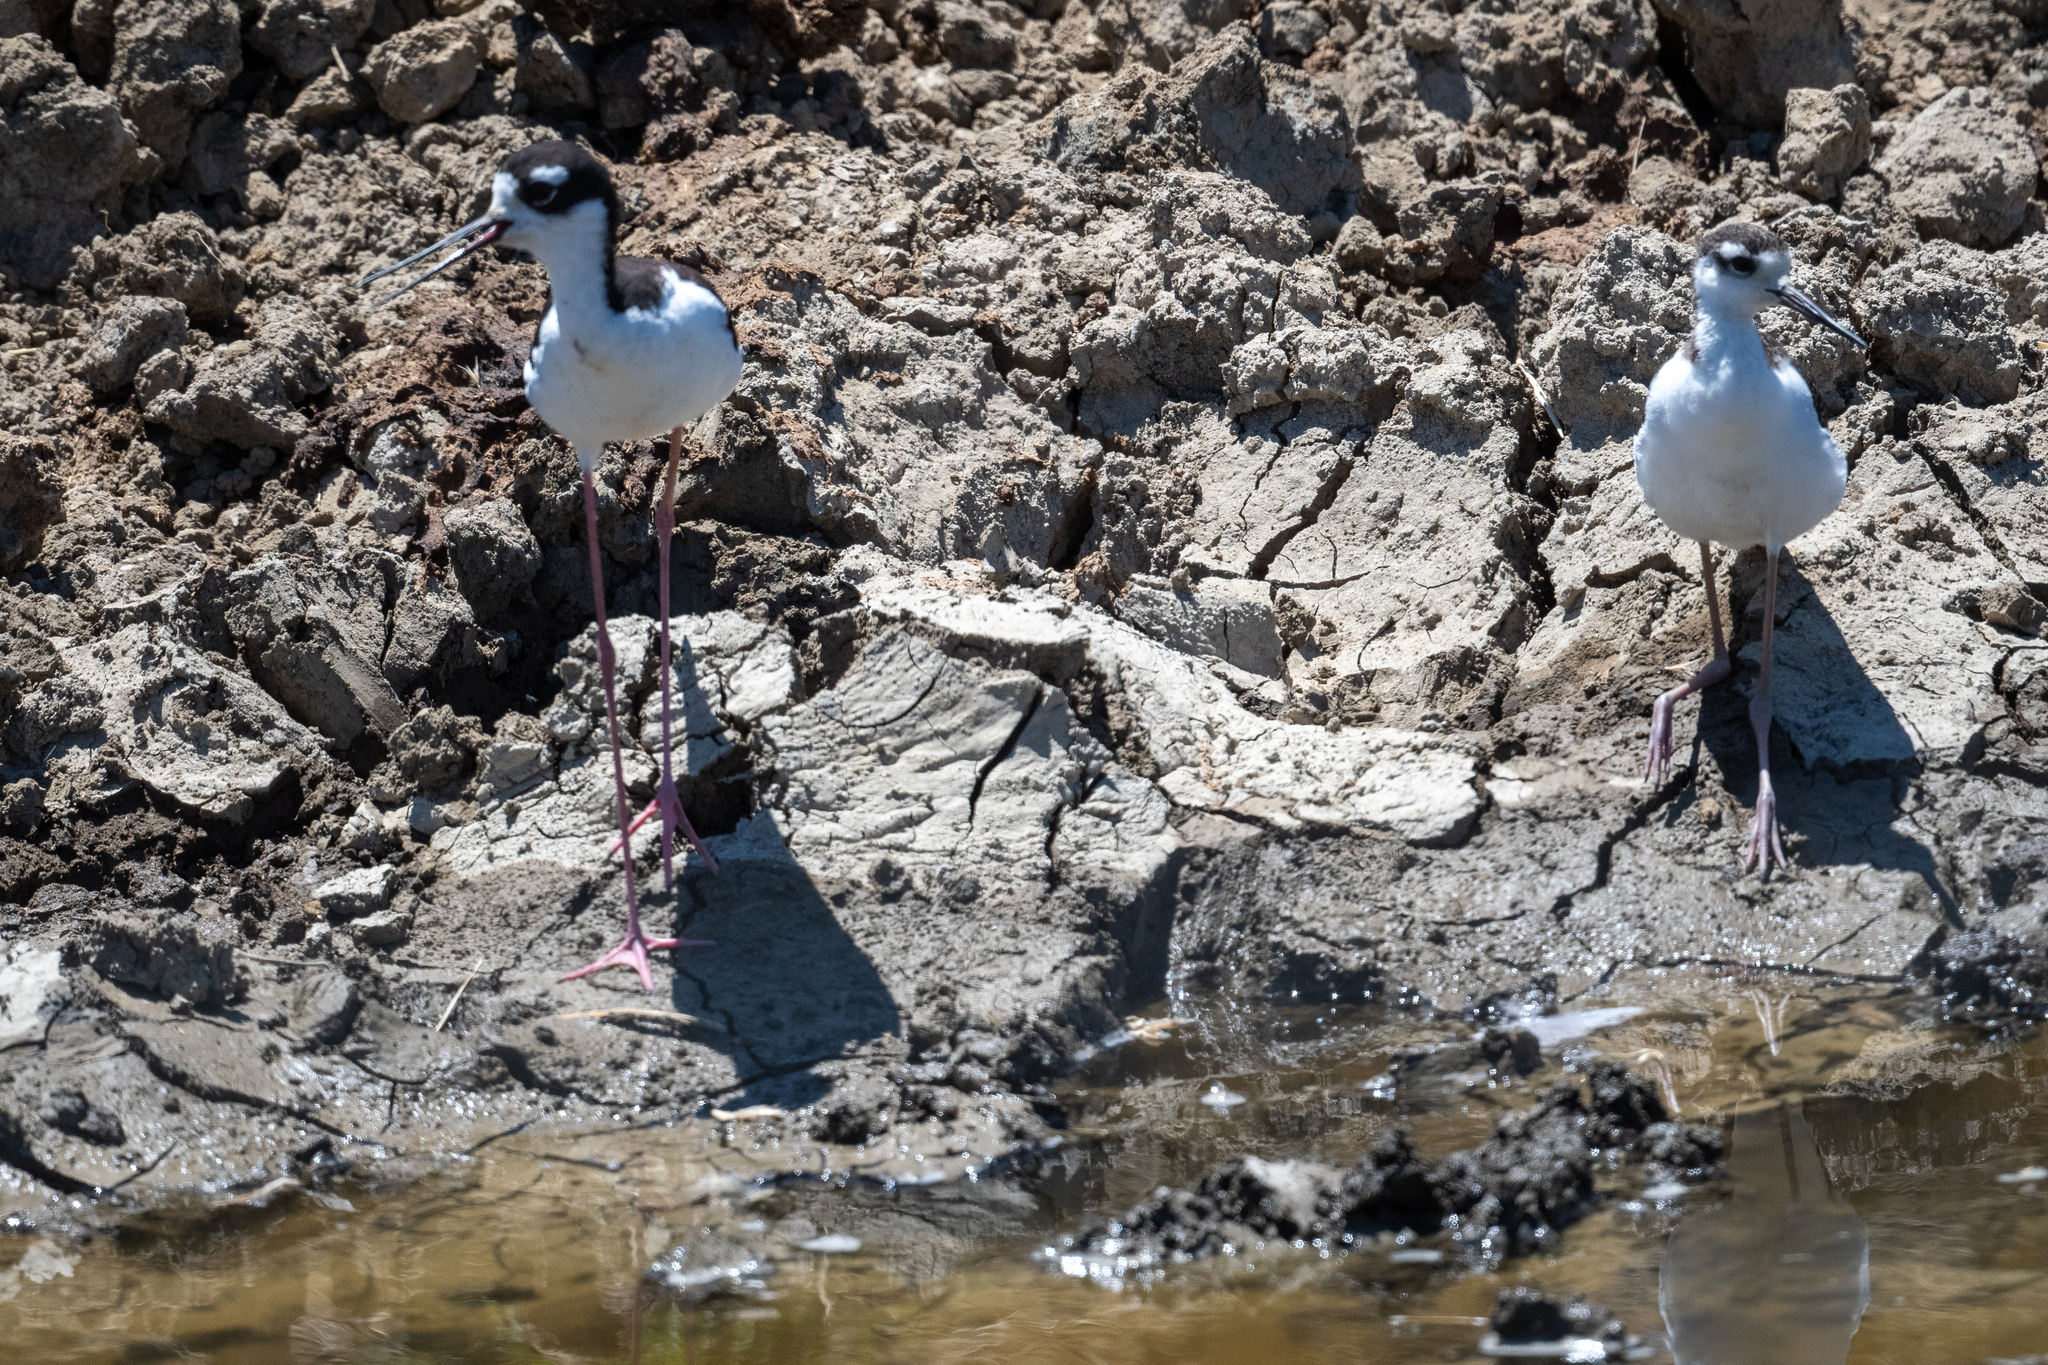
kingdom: Animalia
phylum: Chordata
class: Aves
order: Charadriiformes
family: Recurvirostridae
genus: Himantopus
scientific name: Himantopus mexicanus
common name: Black-necked stilt
